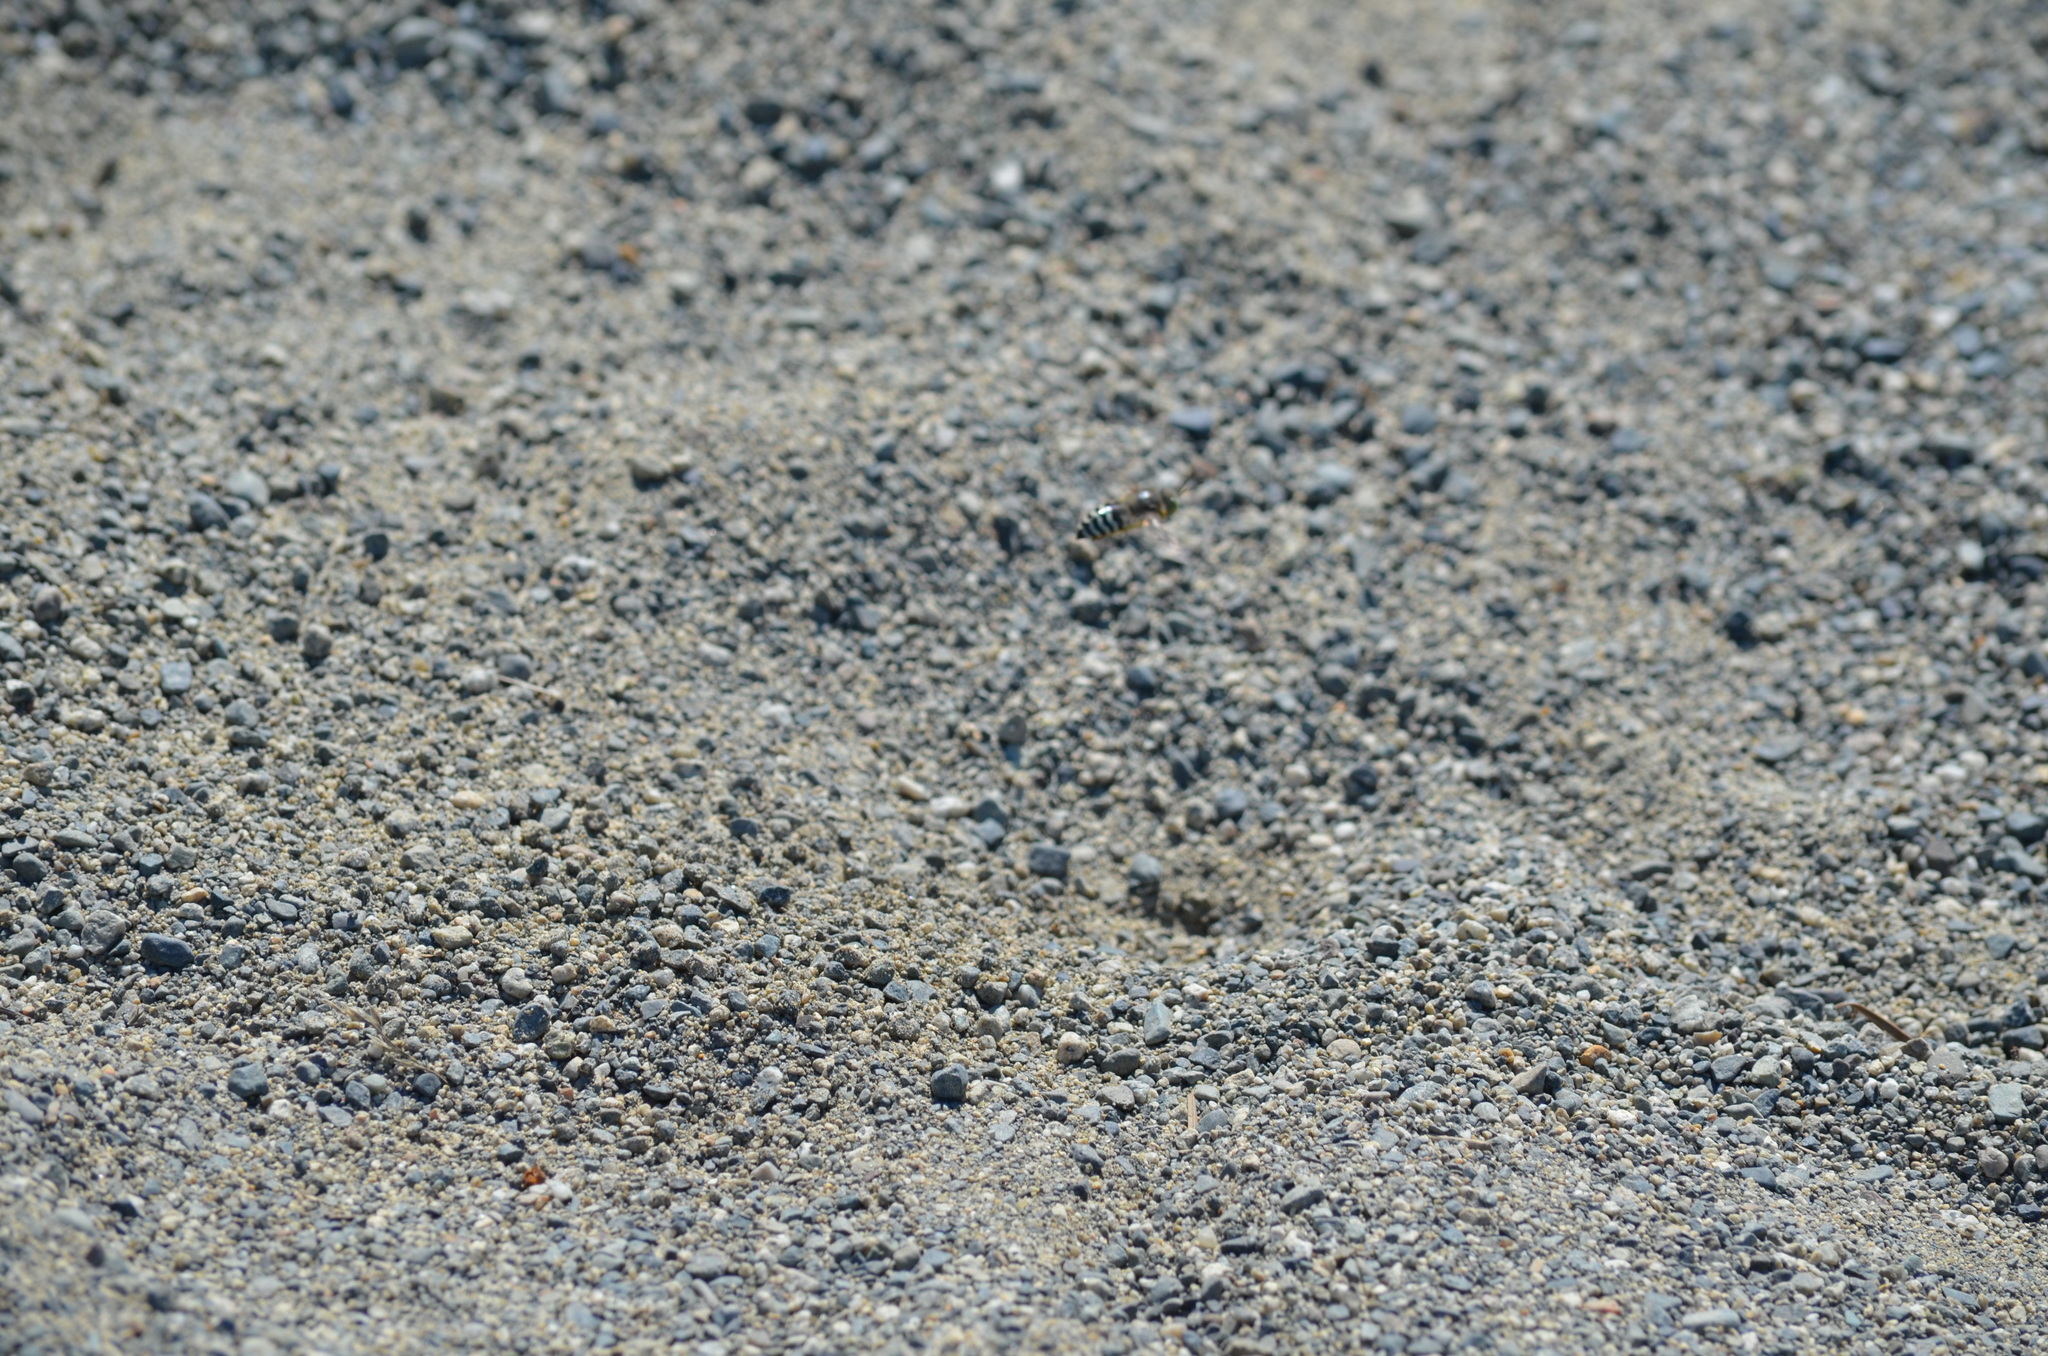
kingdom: Animalia
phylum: Arthropoda
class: Insecta
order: Hymenoptera
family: Crabronidae
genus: Bembix
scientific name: Bembix americana
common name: American sand wasp
